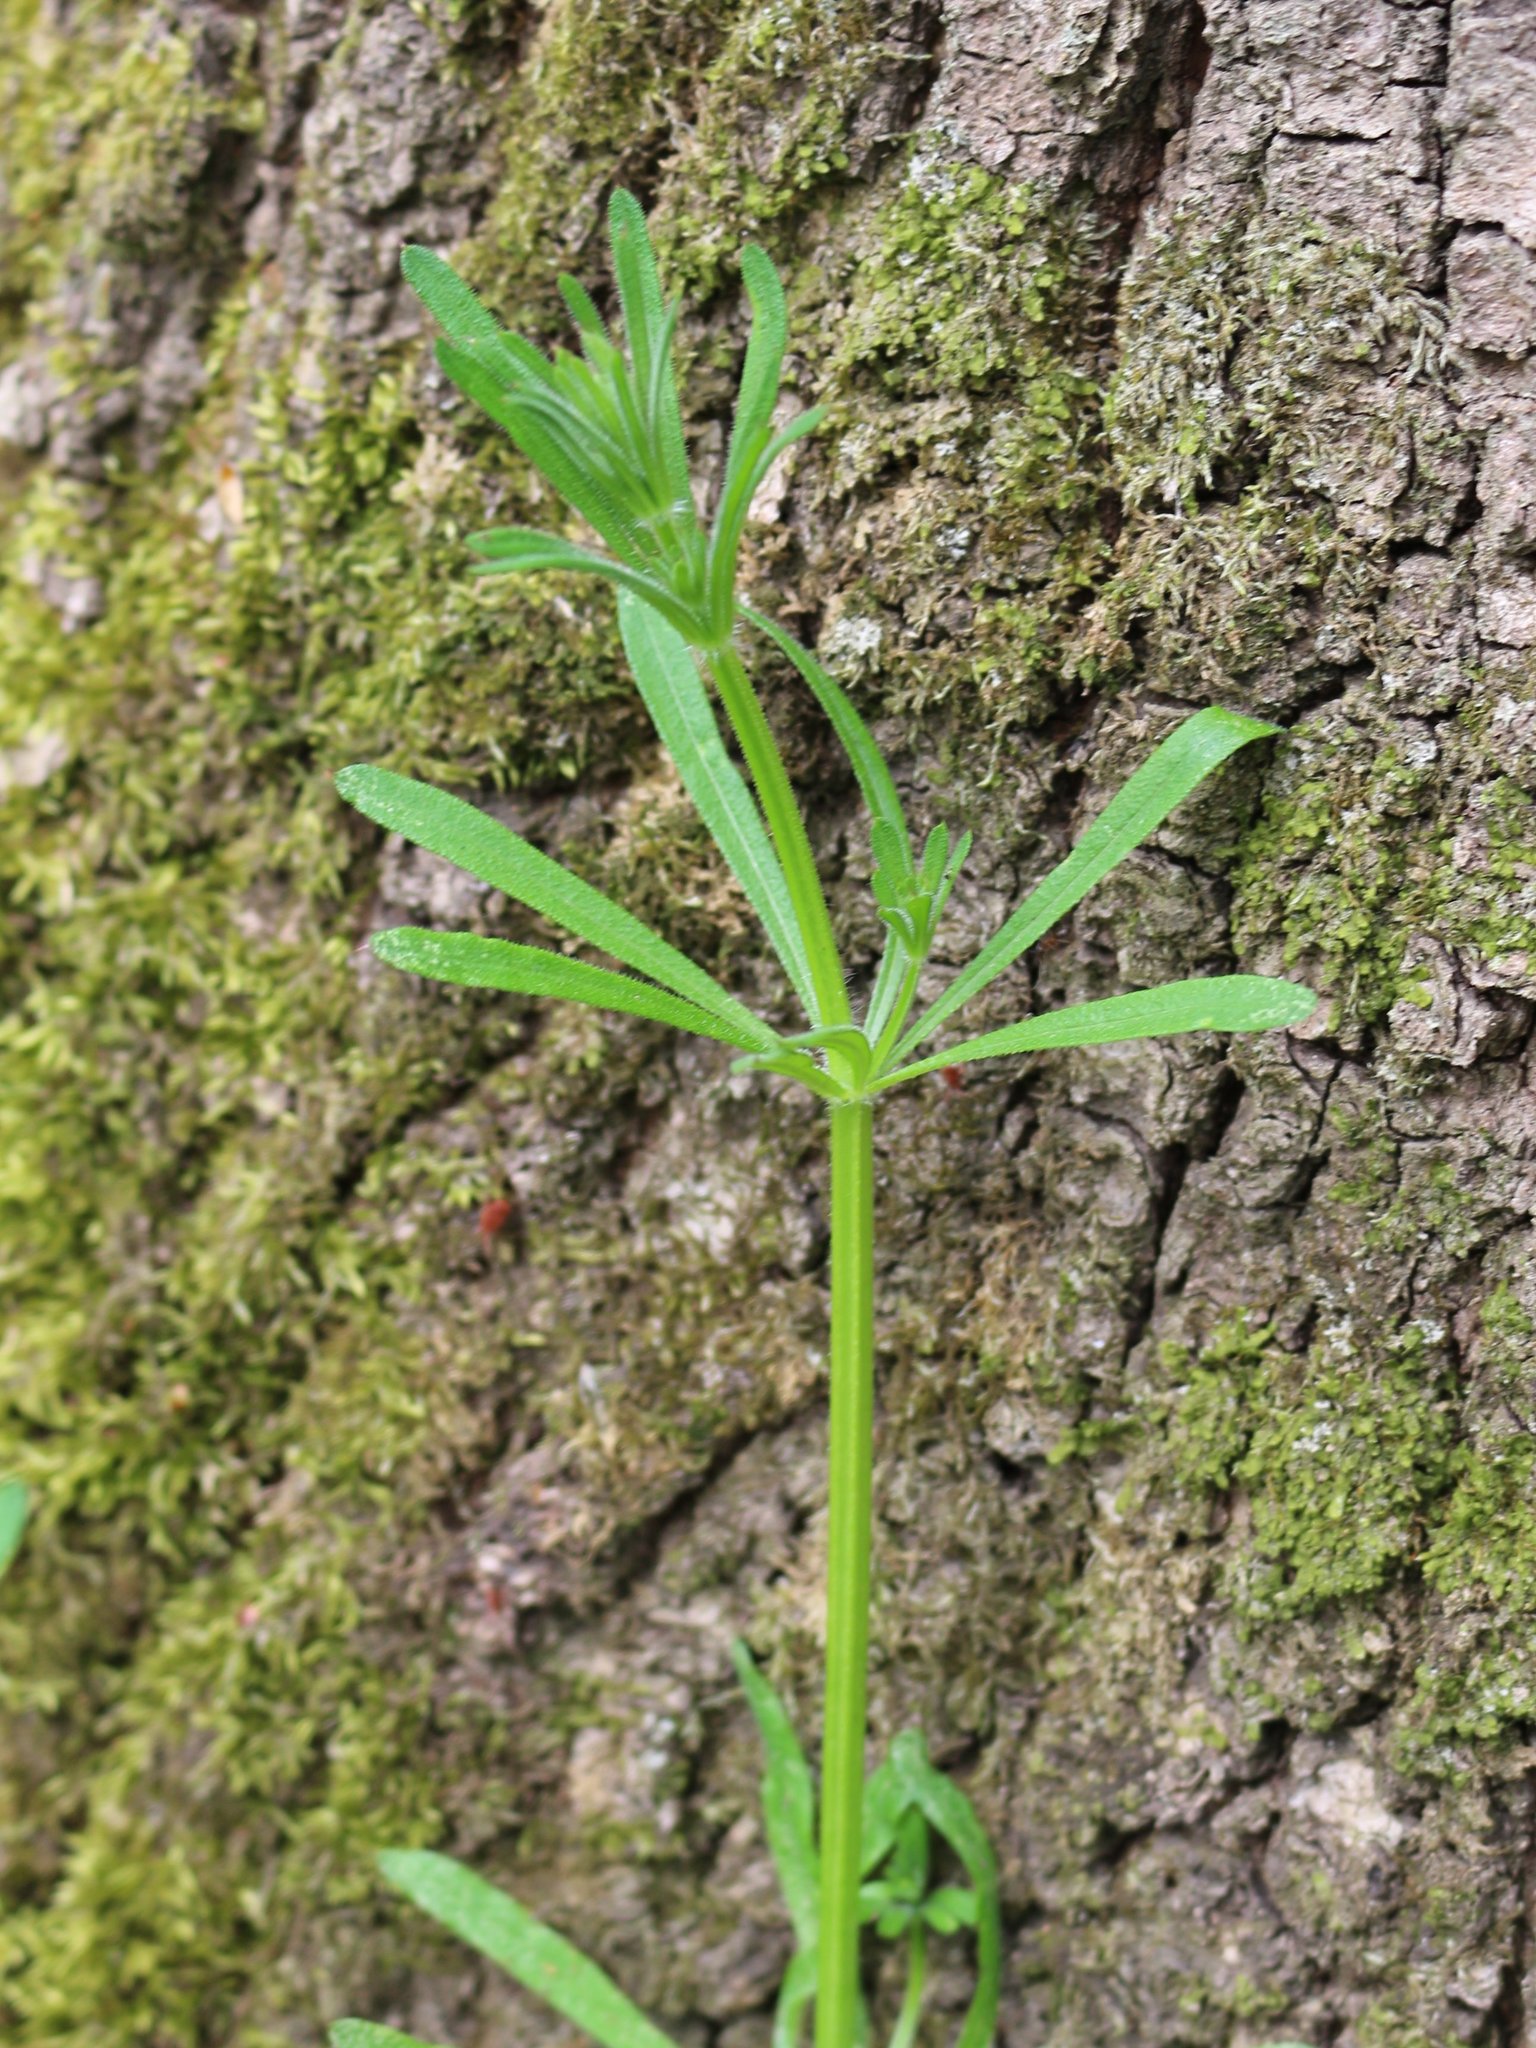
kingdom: Plantae
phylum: Tracheophyta
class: Magnoliopsida
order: Gentianales
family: Rubiaceae
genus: Galium
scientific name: Galium aparine
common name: Cleavers
